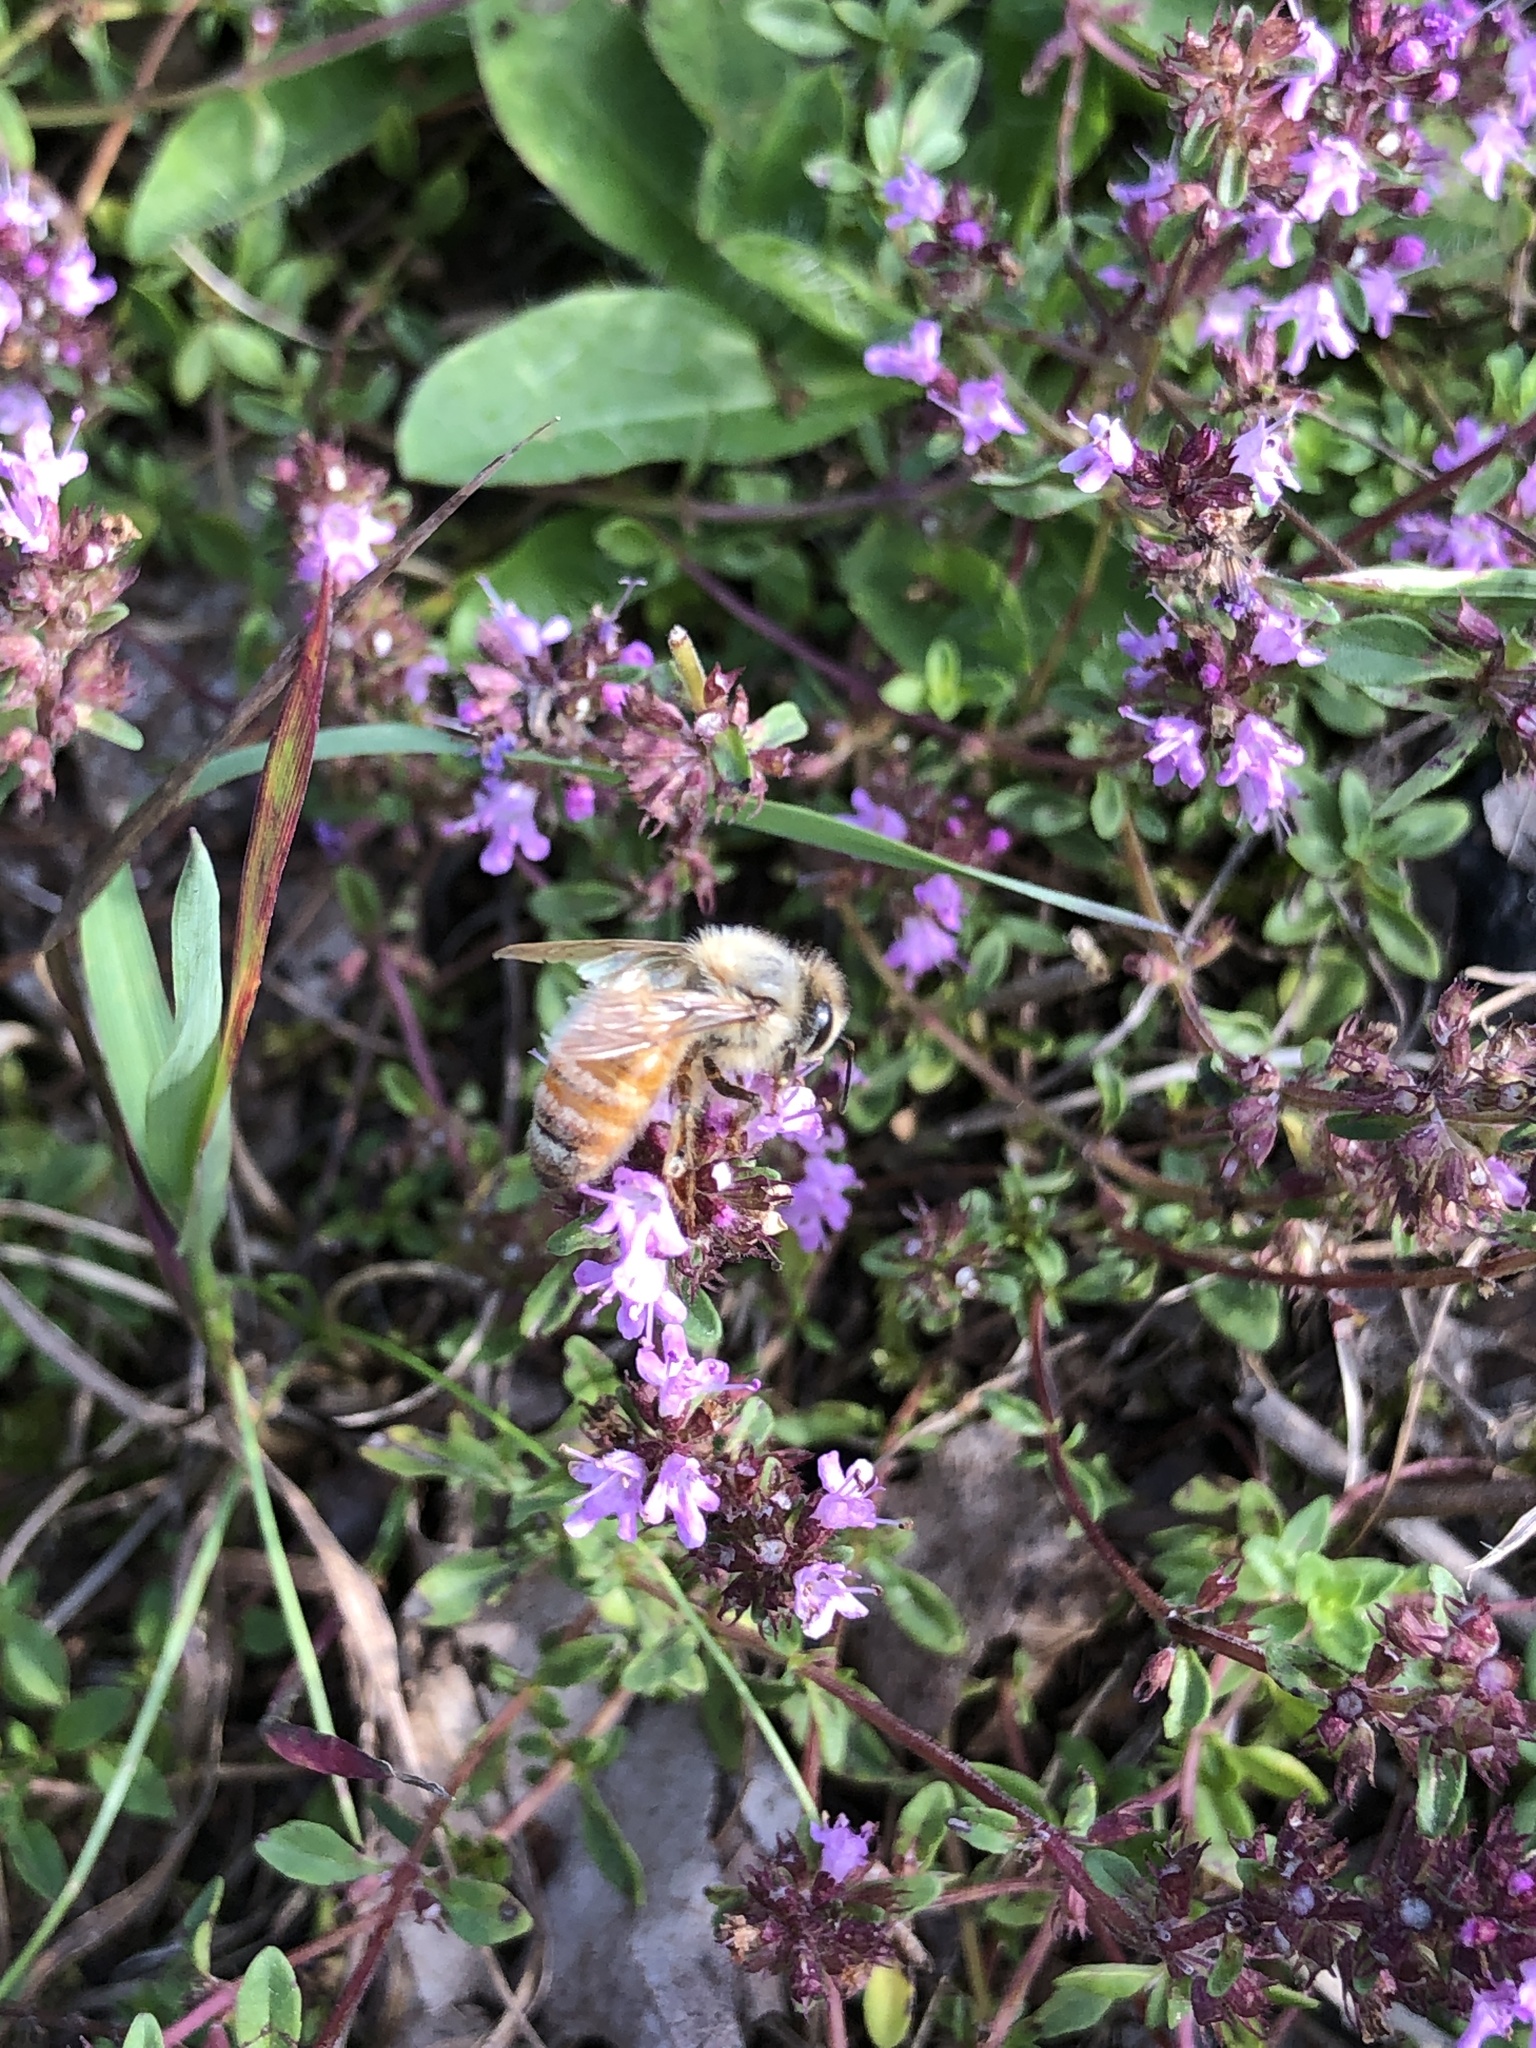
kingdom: Animalia
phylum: Arthropoda
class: Insecta
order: Hymenoptera
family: Apidae
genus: Apis
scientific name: Apis mellifera
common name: Honey bee
